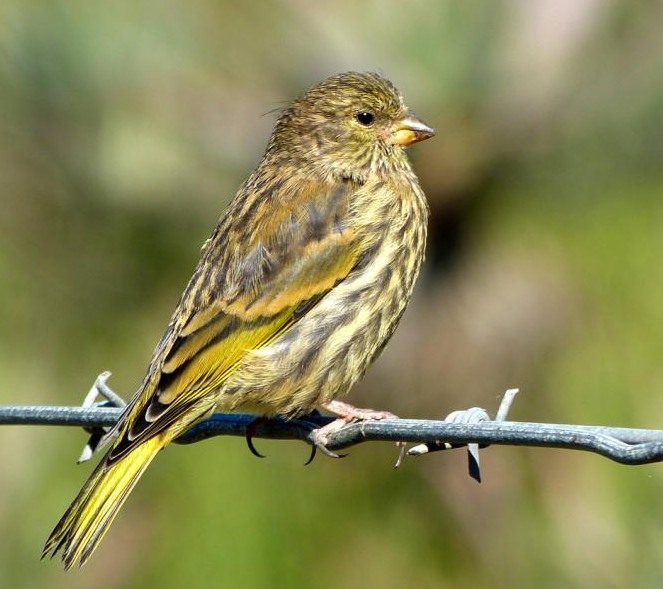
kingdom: Animalia
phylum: Chordata
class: Aves
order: Passeriformes
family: Fringillidae
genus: Serinus
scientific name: Serinus canicollis
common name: Cape canary
